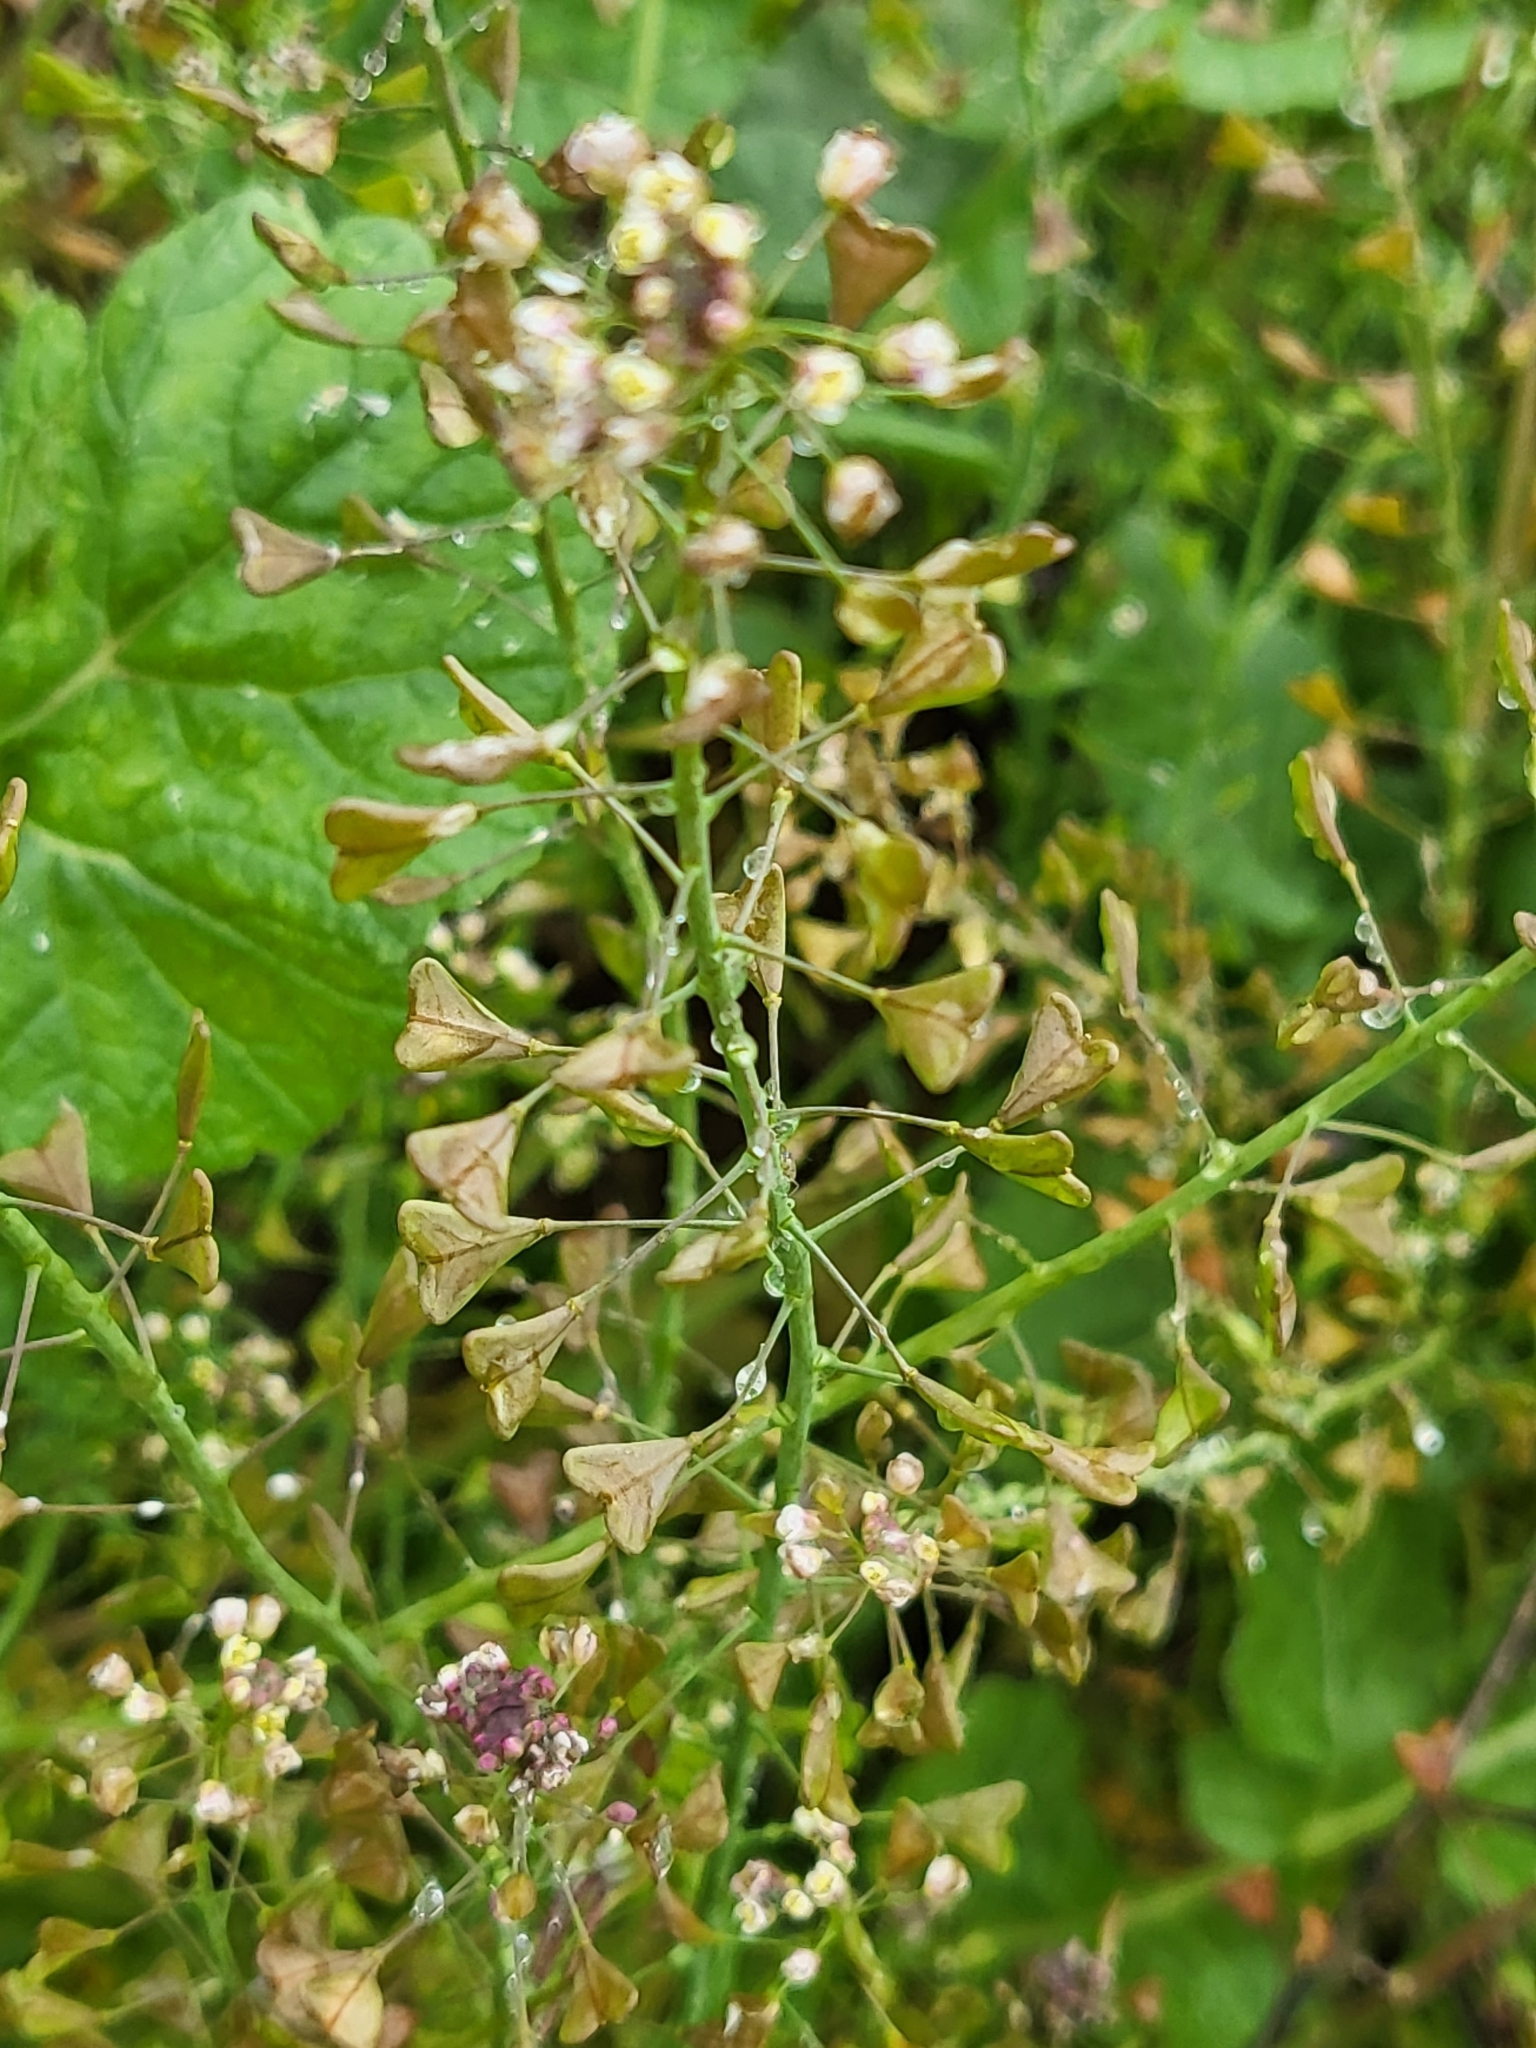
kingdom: Plantae
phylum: Tracheophyta
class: Magnoliopsida
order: Brassicales
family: Brassicaceae
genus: Capsella
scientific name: Capsella bursa-pastoris
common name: Shepherd's purse
